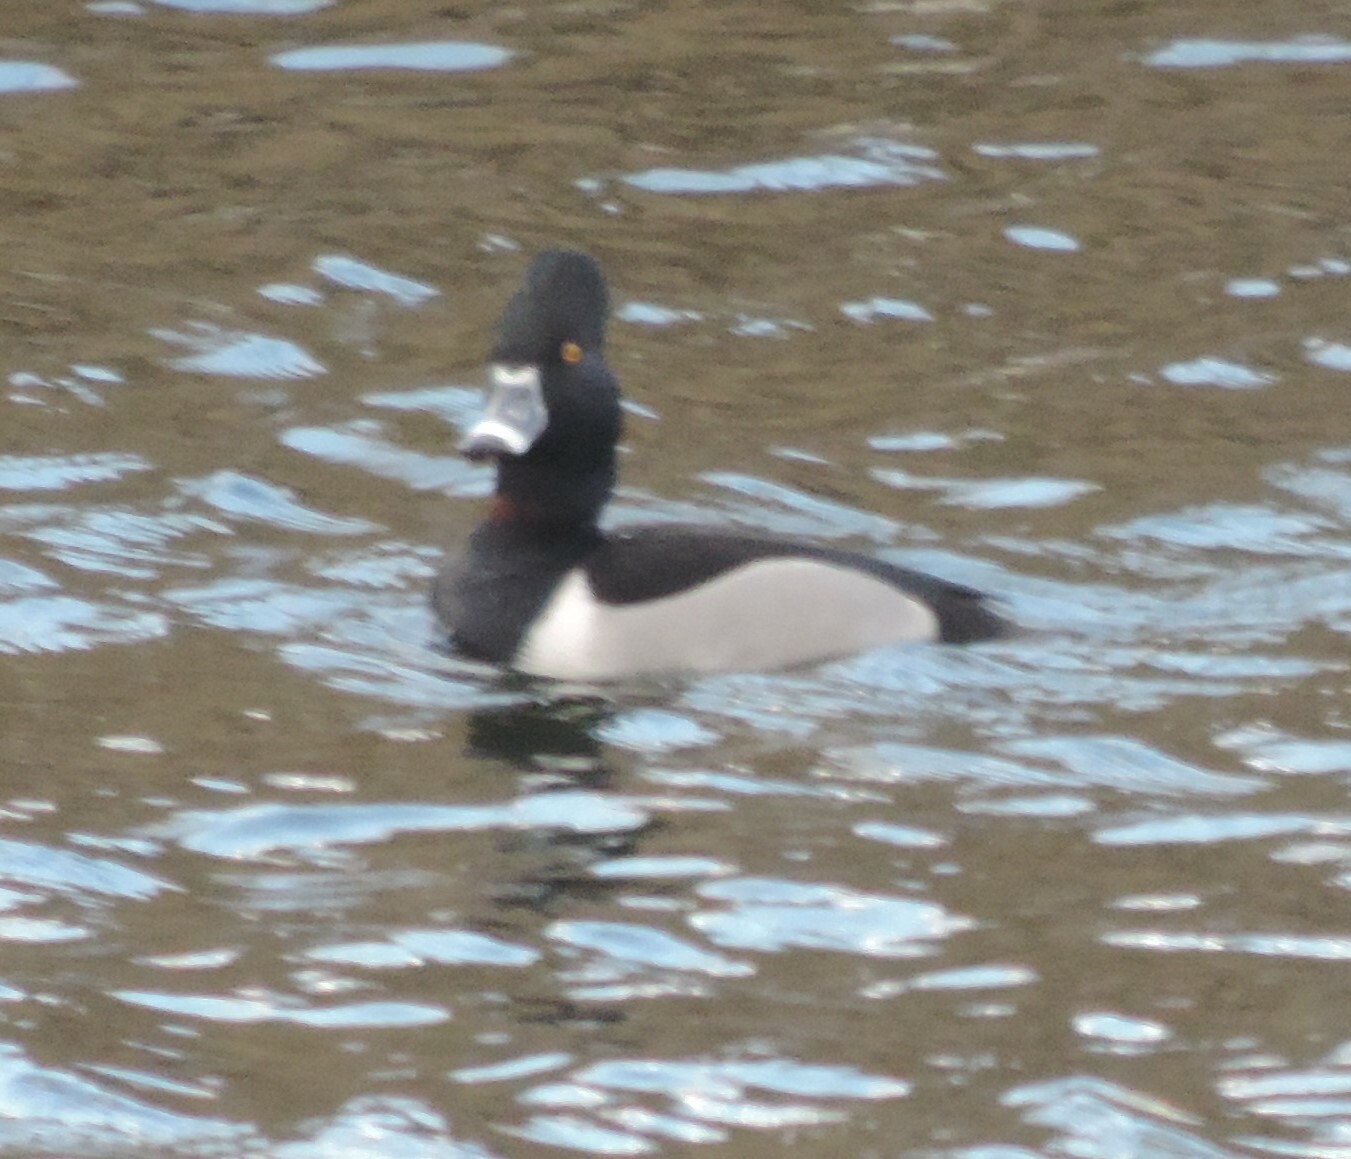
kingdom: Animalia
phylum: Chordata
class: Aves
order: Anseriformes
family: Anatidae
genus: Aythya
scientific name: Aythya collaris
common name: Ring-necked duck
